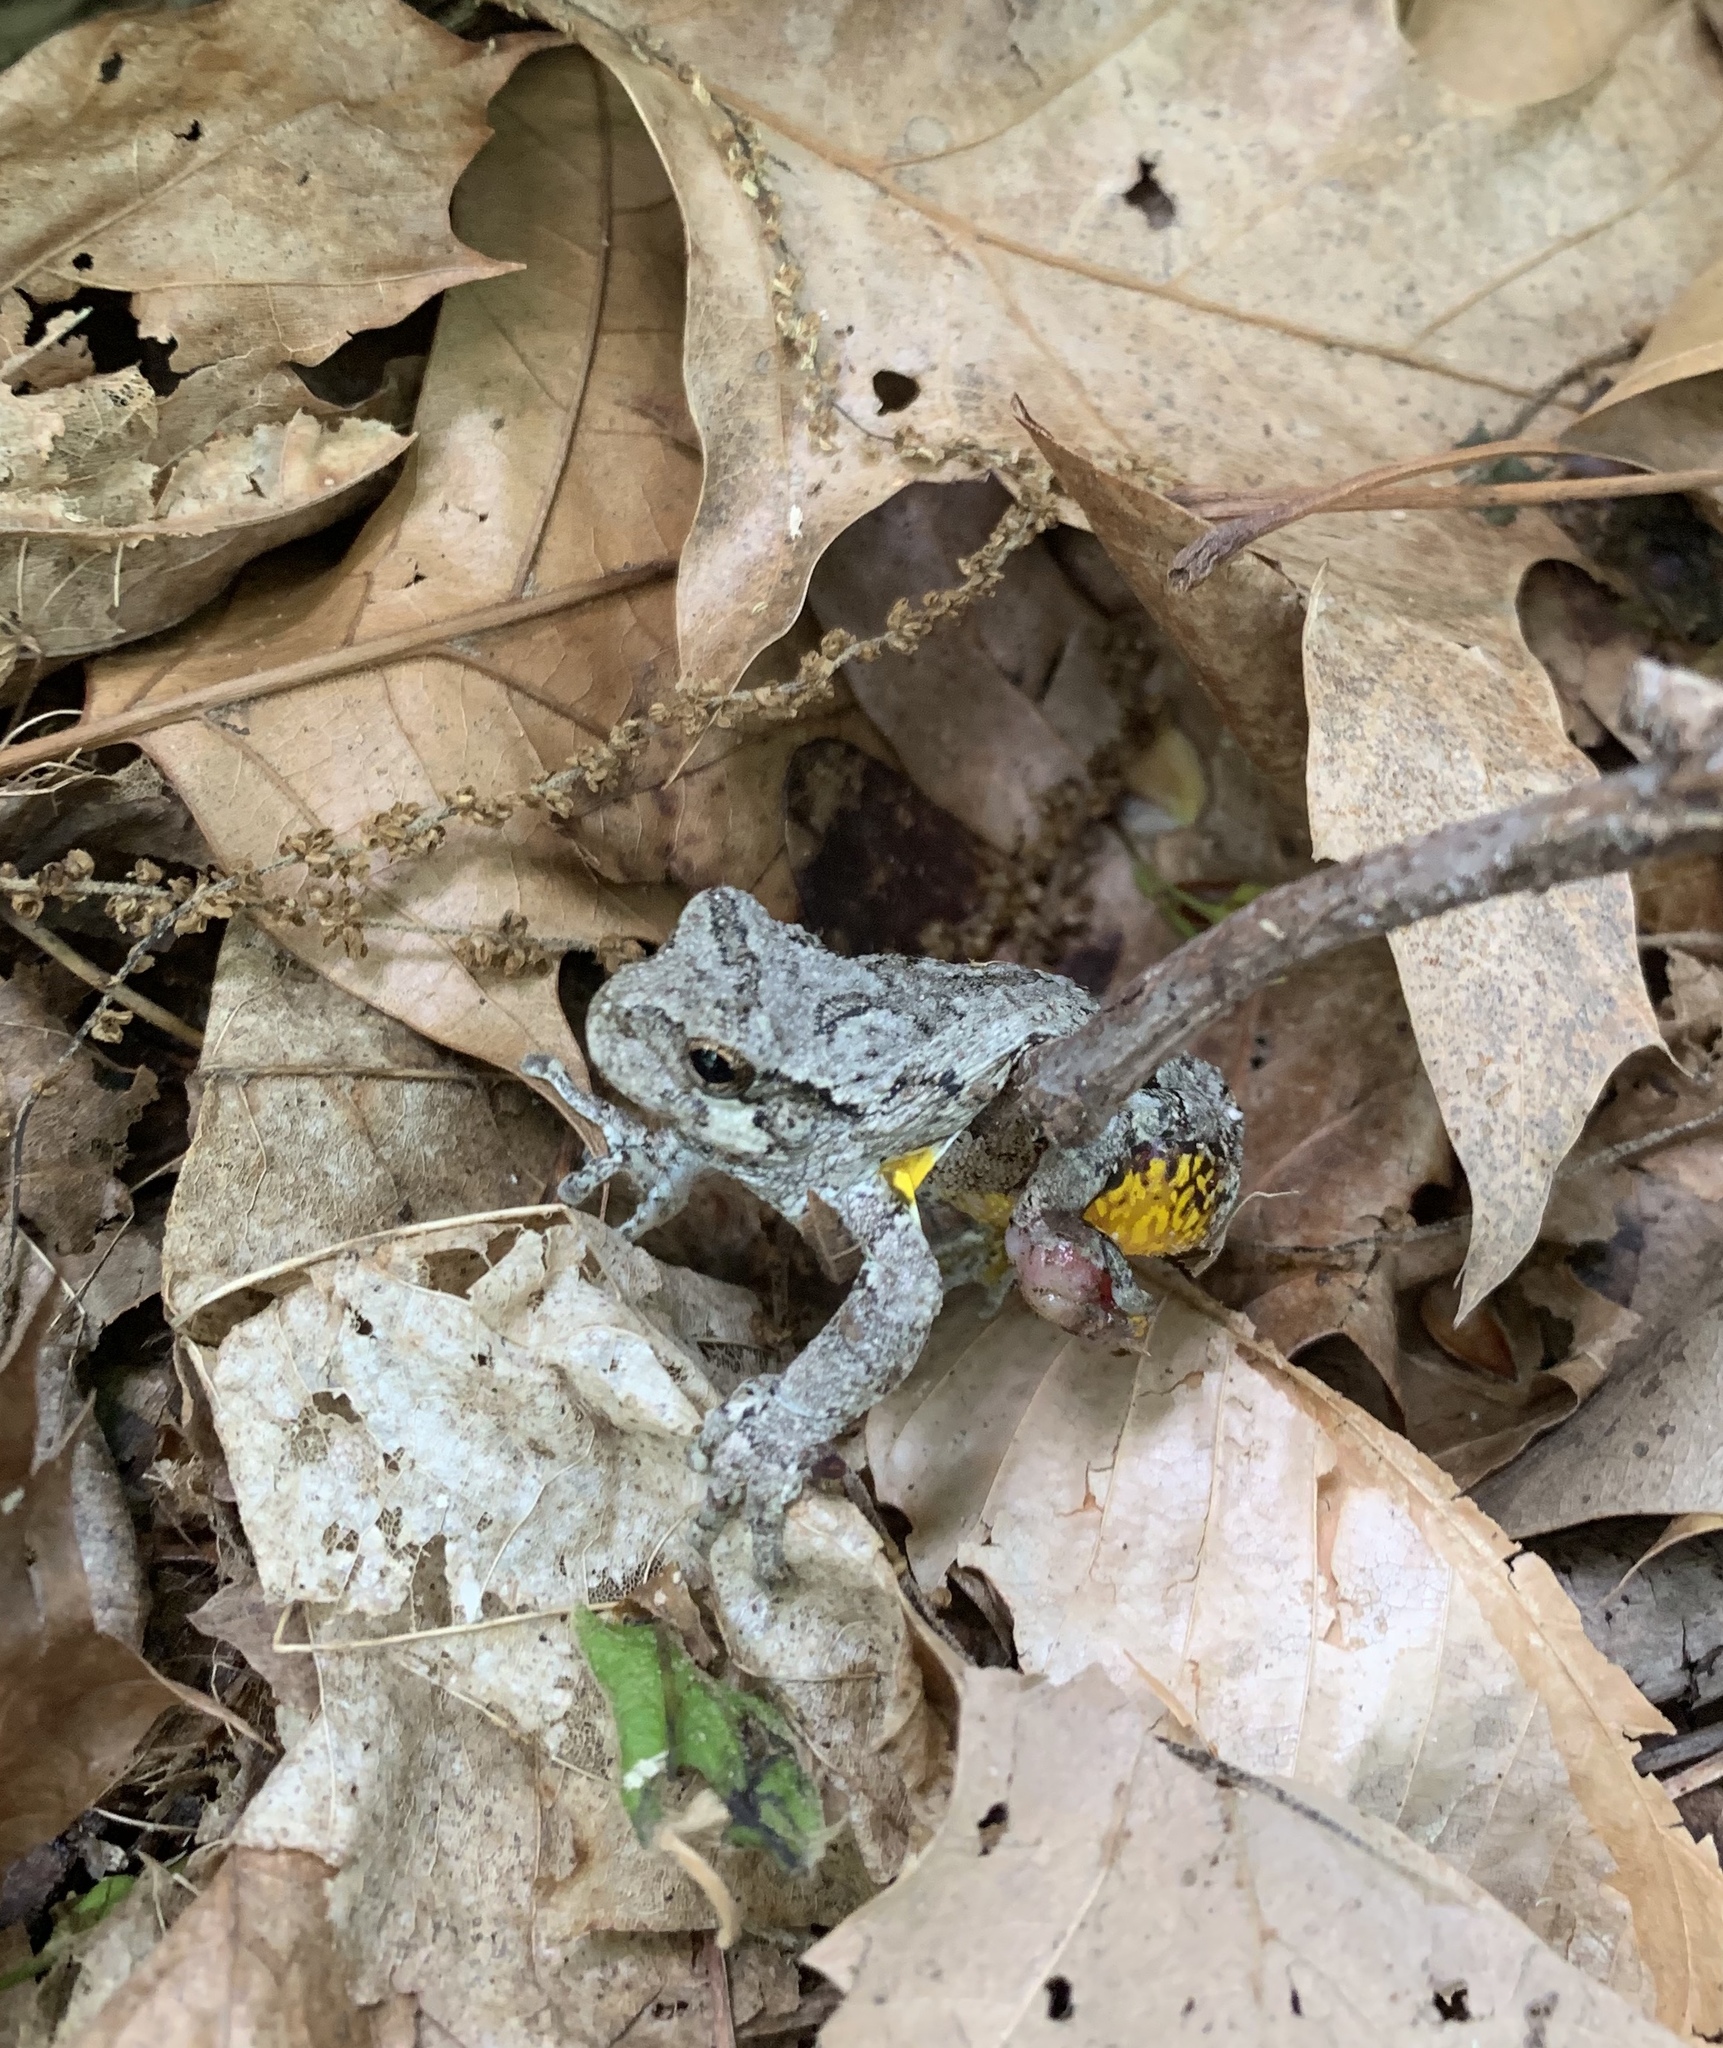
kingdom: Animalia
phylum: Chordata
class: Amphibia
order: Anura
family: Hylidae
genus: Dryophytes
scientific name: Dryophytes versicolor
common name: Gray treefrog
